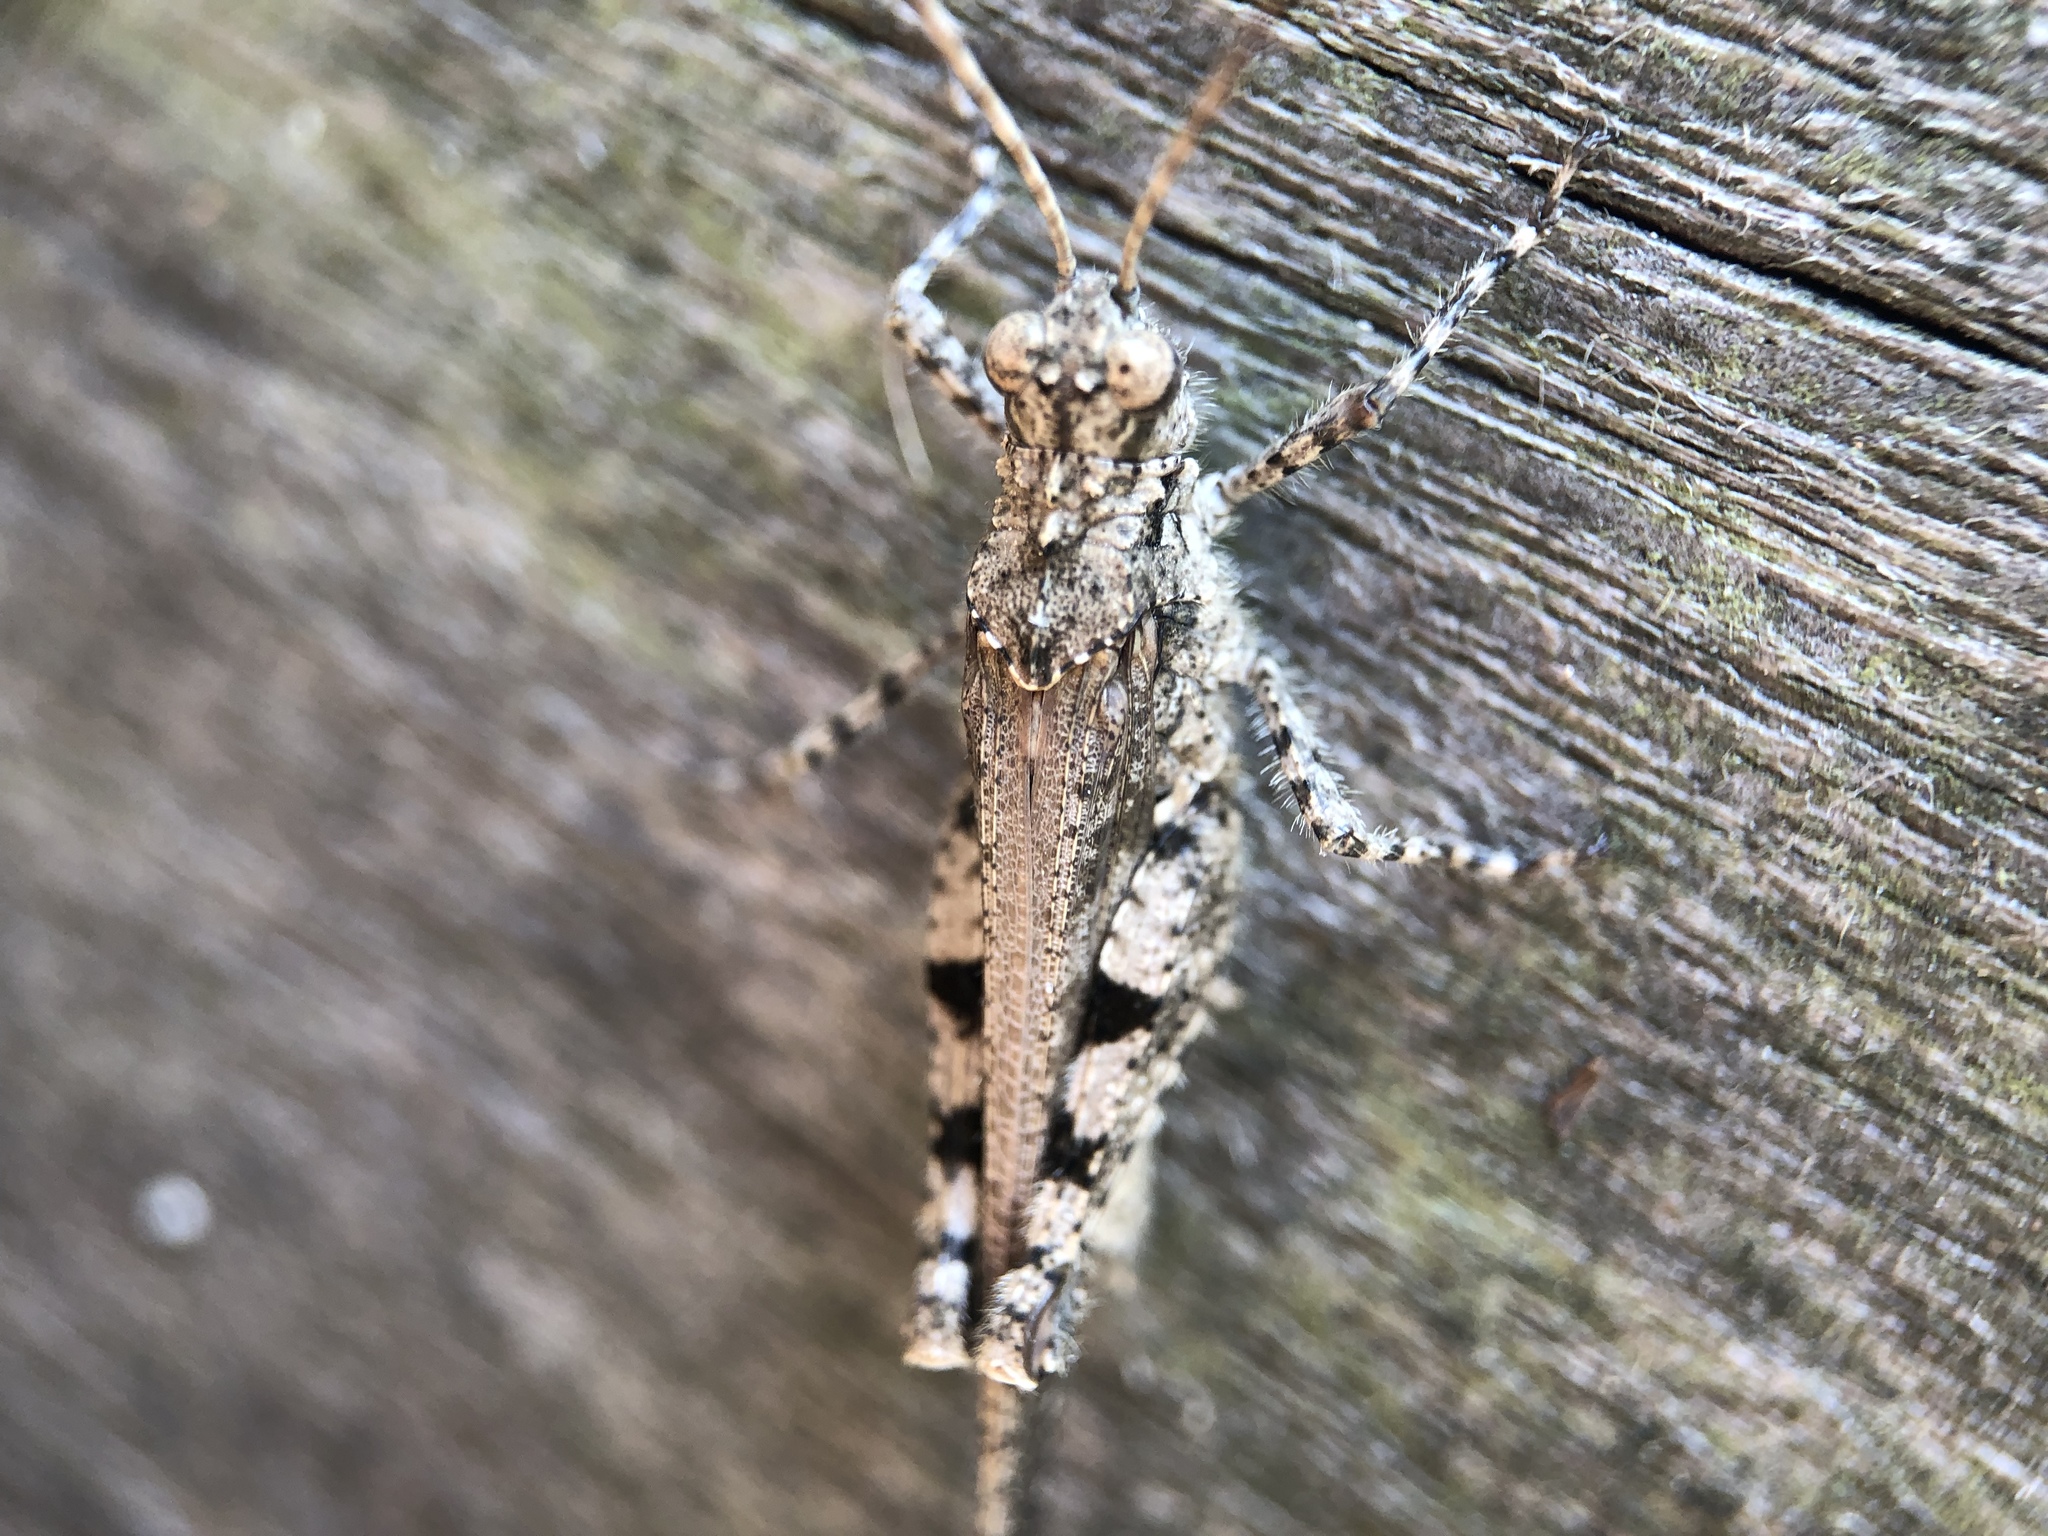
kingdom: Animalia
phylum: Arthropoda
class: Insecta
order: Orthoptera
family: Acrididae
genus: Trilophidia
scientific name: Trilophidia annulata
